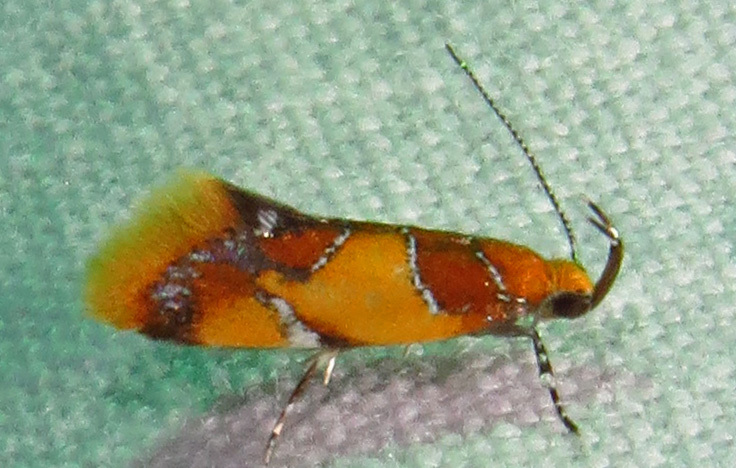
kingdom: Animalia
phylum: Arthropoda
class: Insecta
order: Lepidoptera
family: Oecophoridae
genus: Callima
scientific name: Callima argenticinctella
